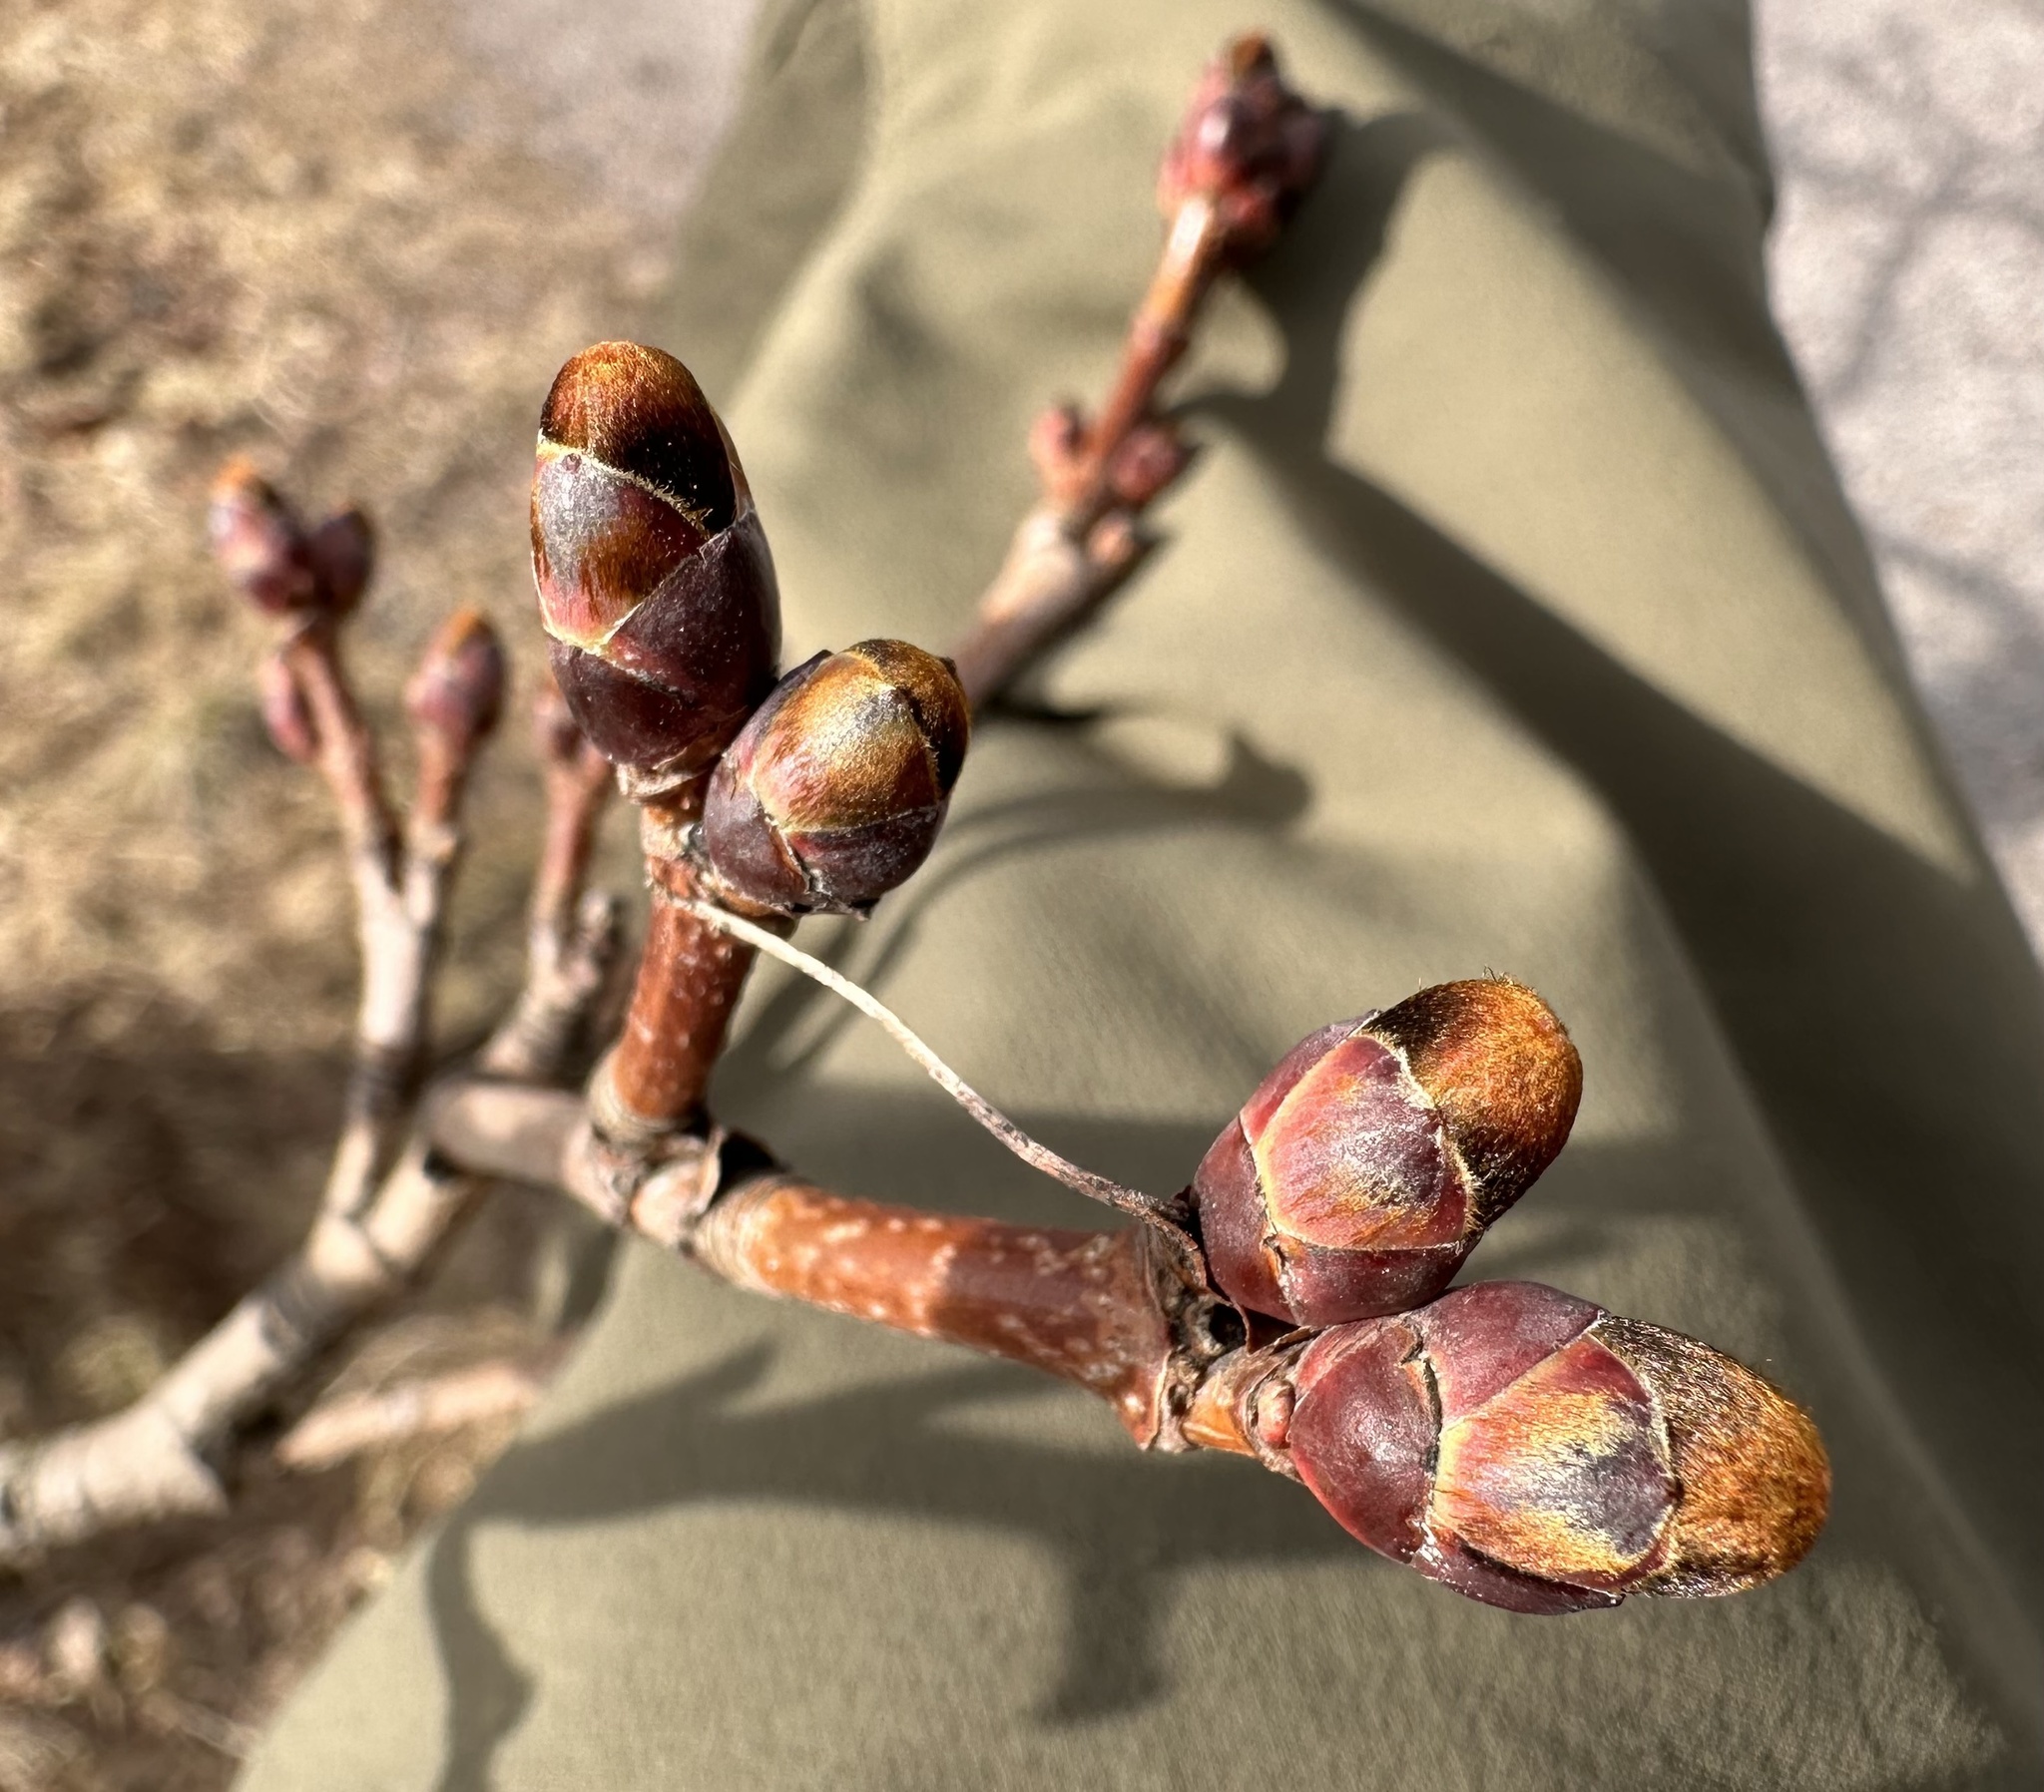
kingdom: Plantae
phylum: Tracheophyta
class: Magnoliopsida
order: Sapindales
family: Sapindaceae
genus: Acer
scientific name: Acer platanoides
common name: Norway maple
